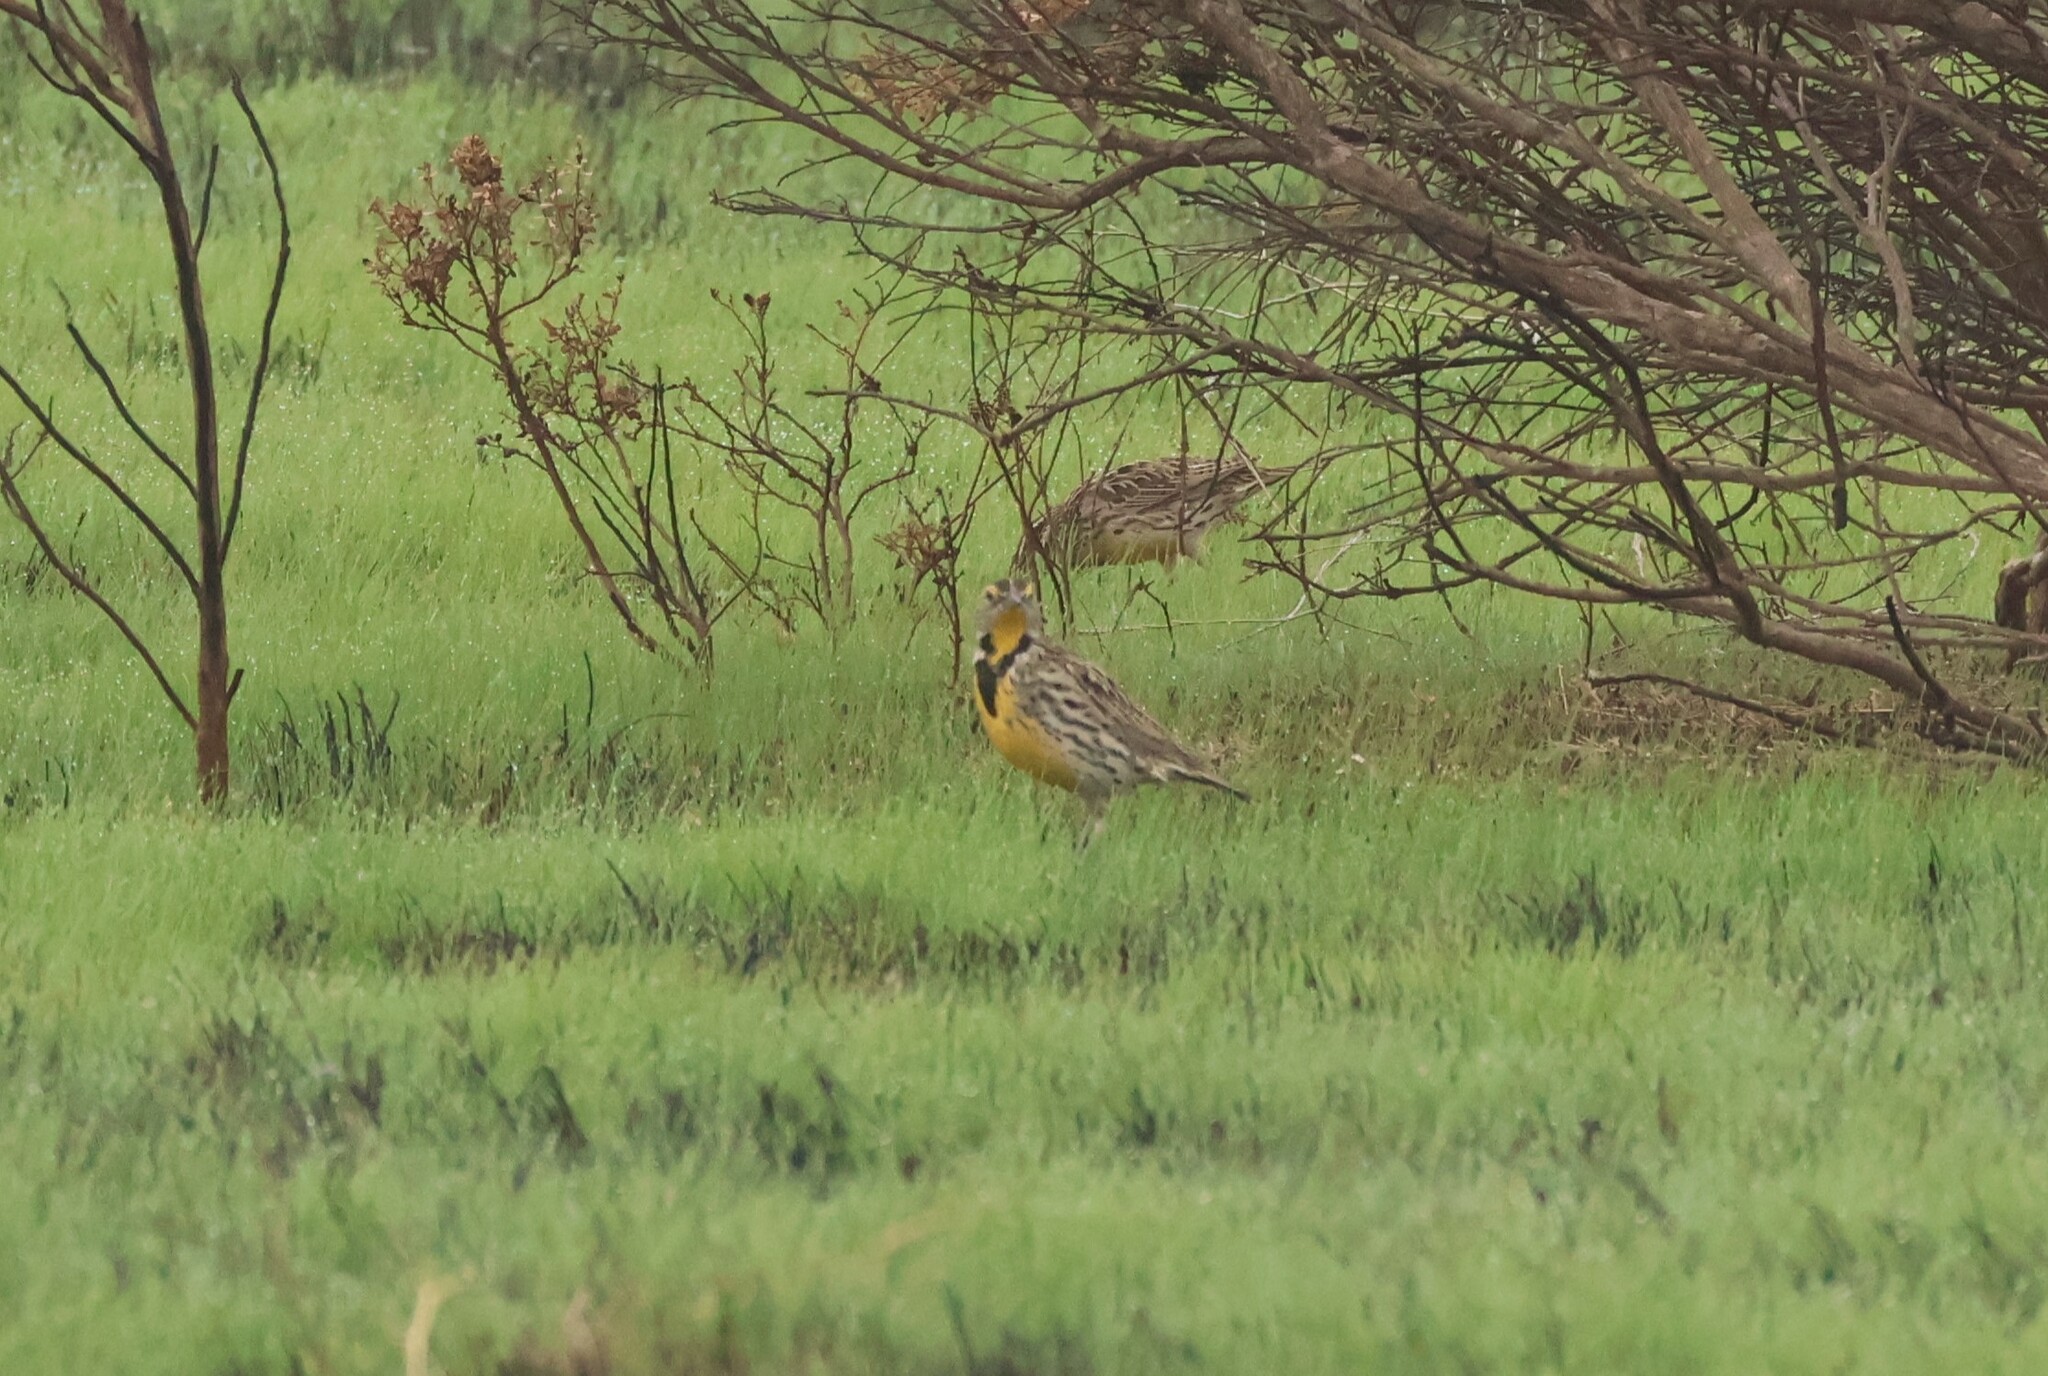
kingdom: Animalia
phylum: Chordata
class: Aves
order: Passeriformes
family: Icteridae
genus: Sturnella
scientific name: Sturnella neglecta
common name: Western meadowlark
